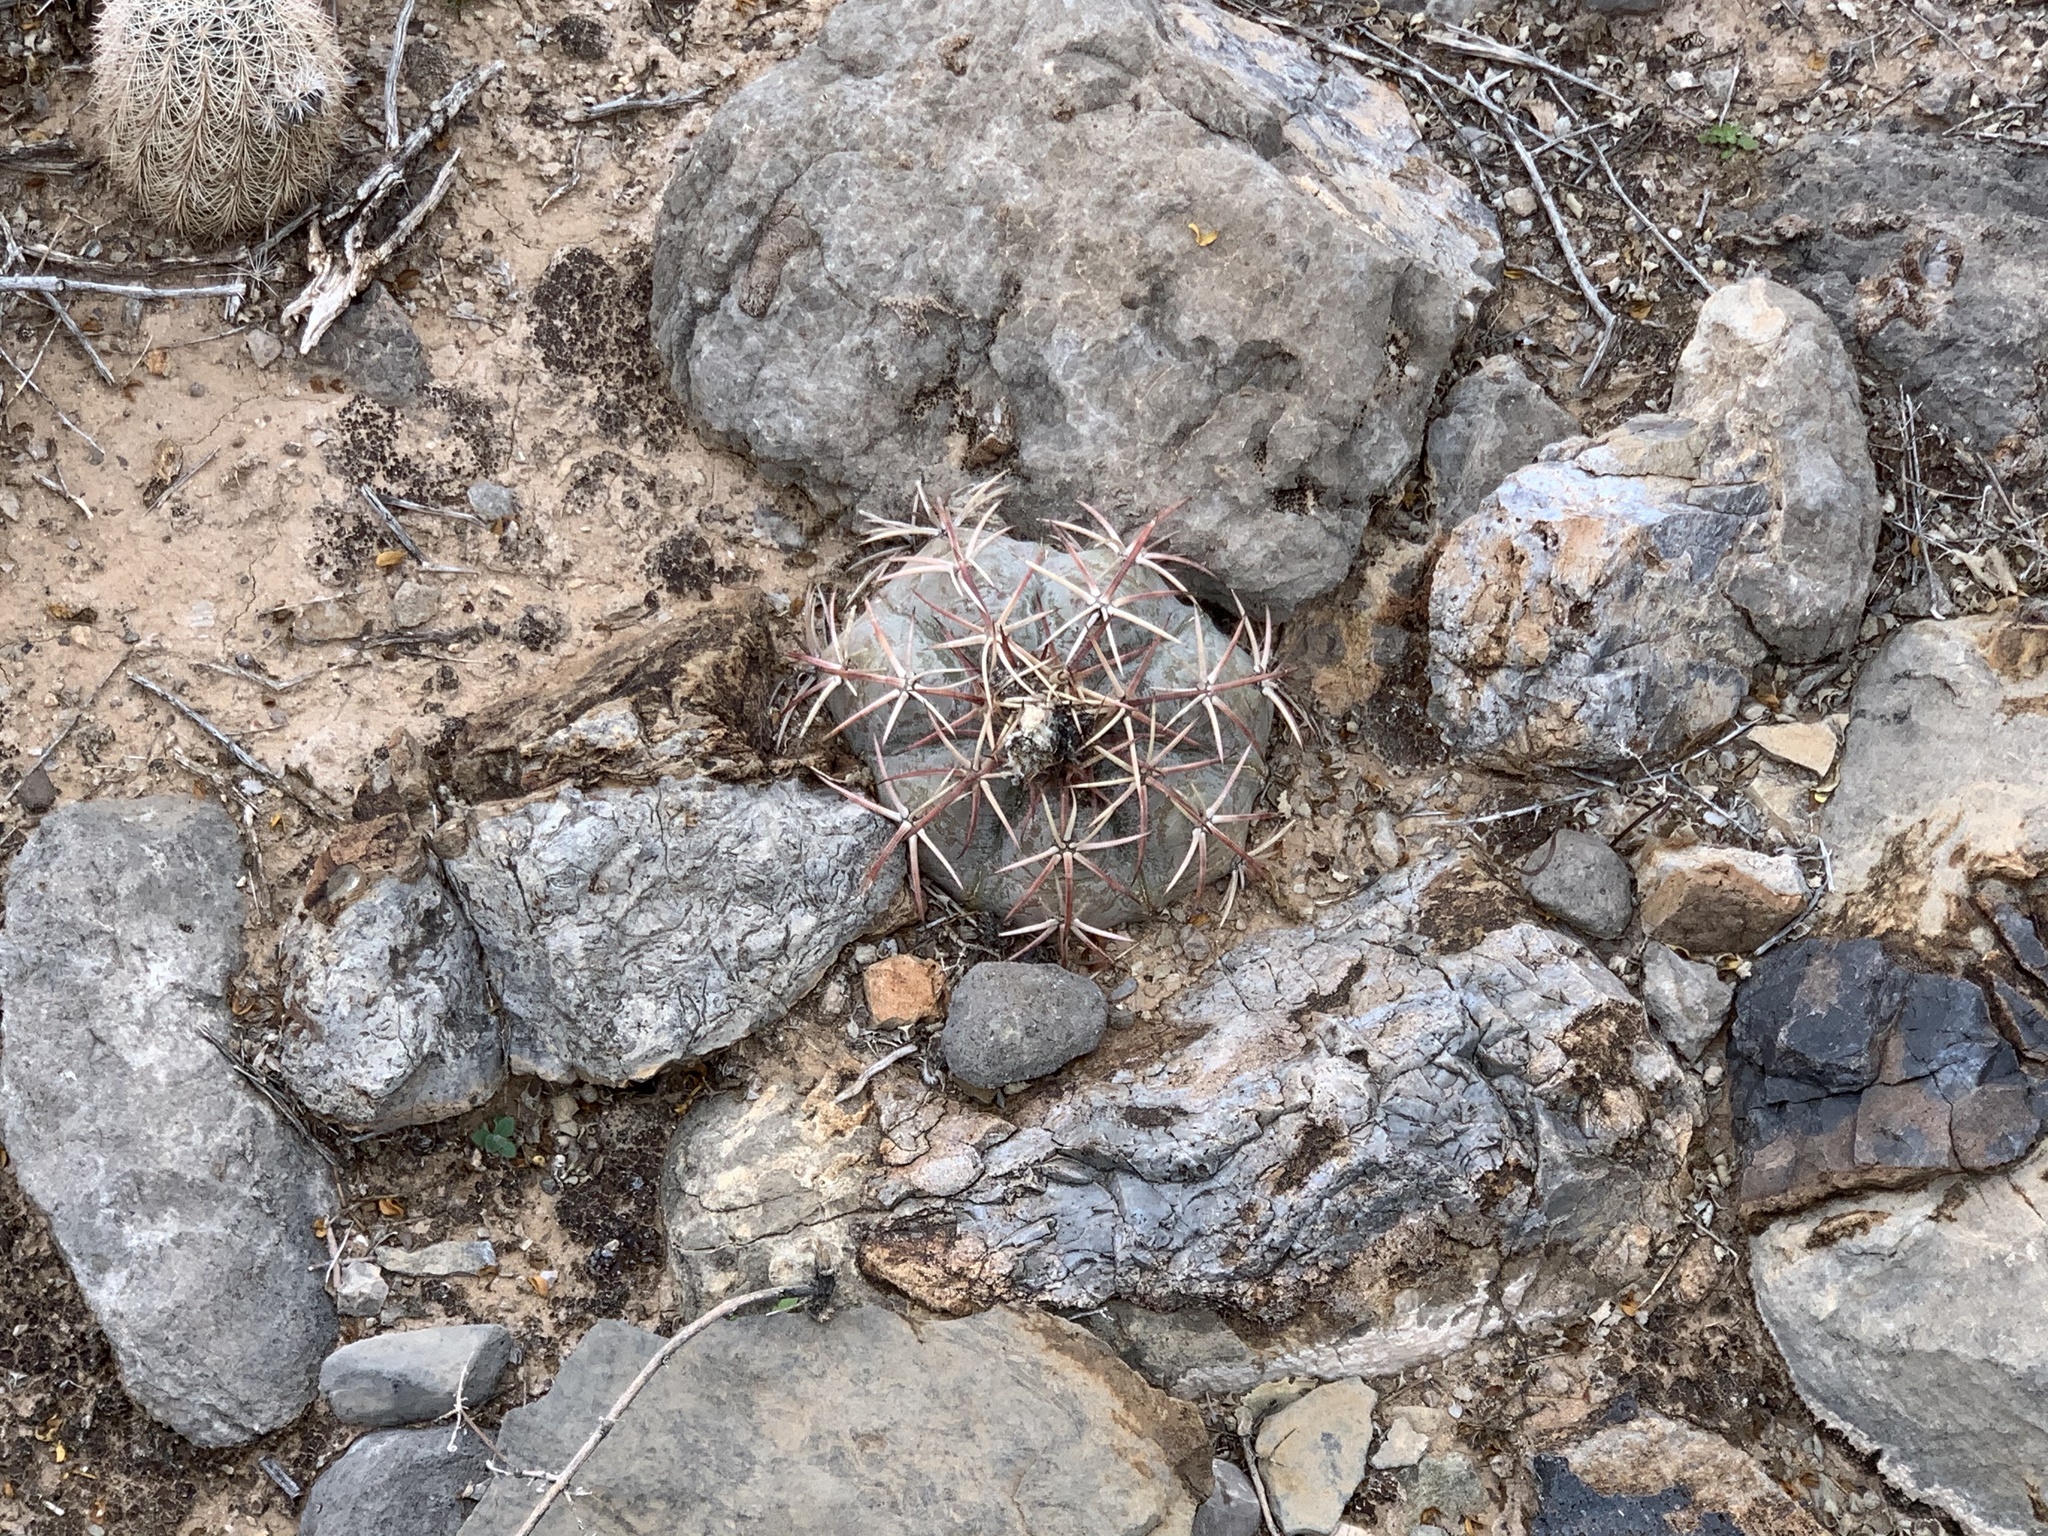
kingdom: Plantae
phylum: Tracheophyta
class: Magnoliopsida
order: Caryophyllales
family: Cactaceae
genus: Echinocactus
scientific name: Echinocactus horizonthalonius
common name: Devilshead
